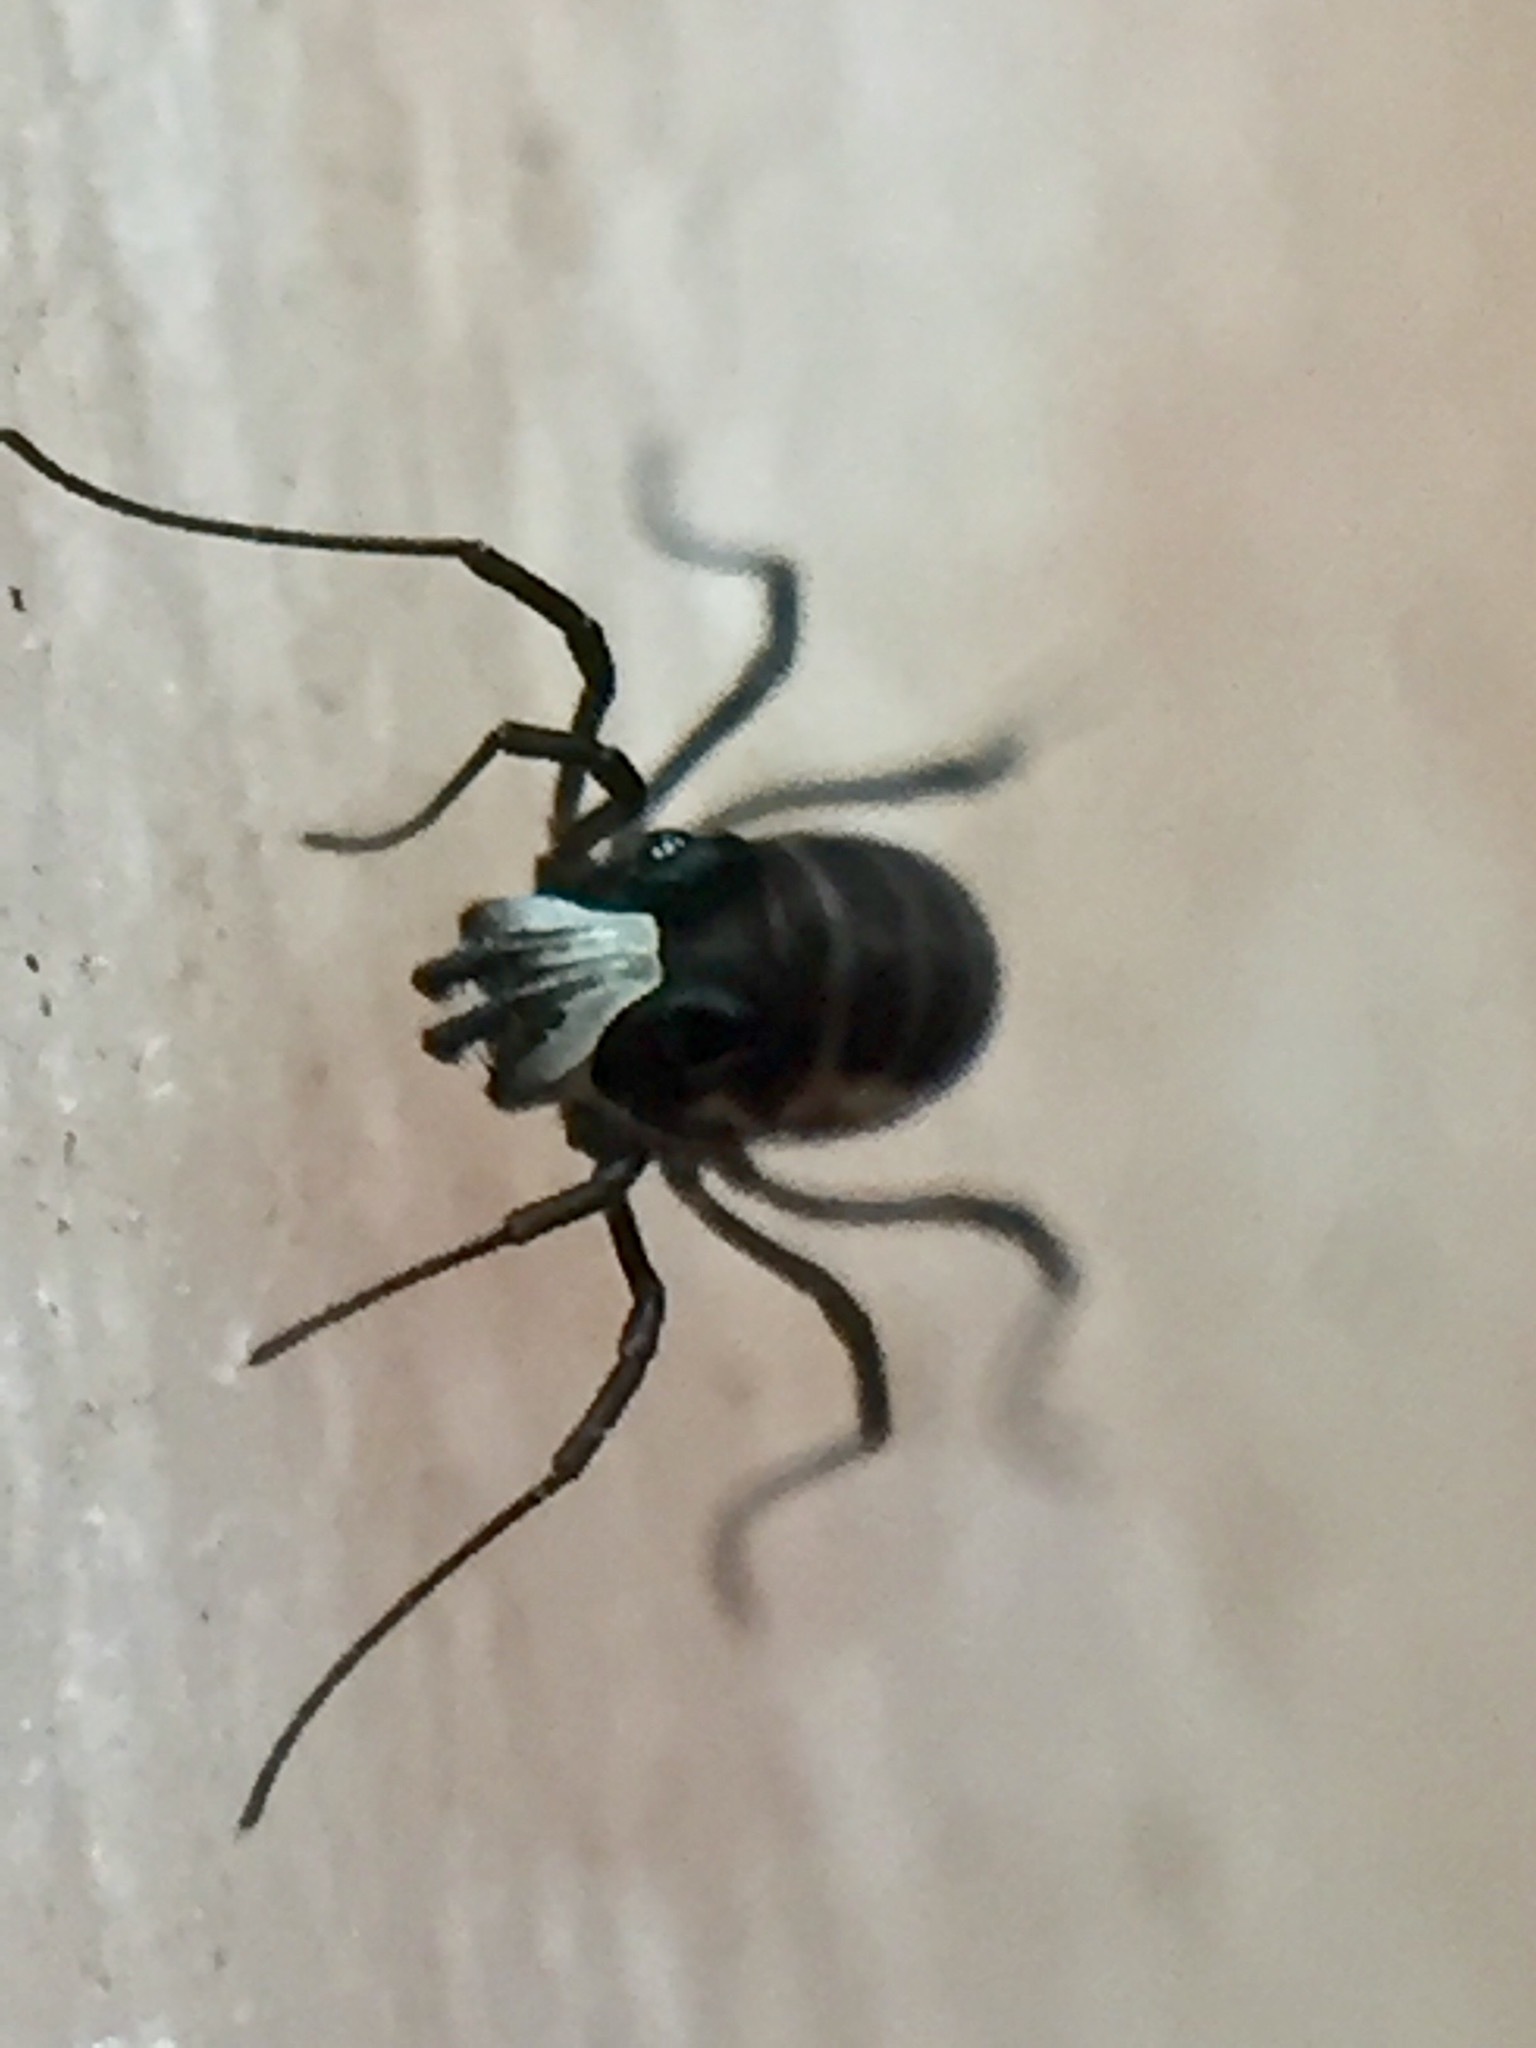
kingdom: Animalia
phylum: Arthropoda
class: Arachnida
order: Opiliones
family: Acropsopilionidae
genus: Acropsopilio
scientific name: Acropsopilio neozelandiae
